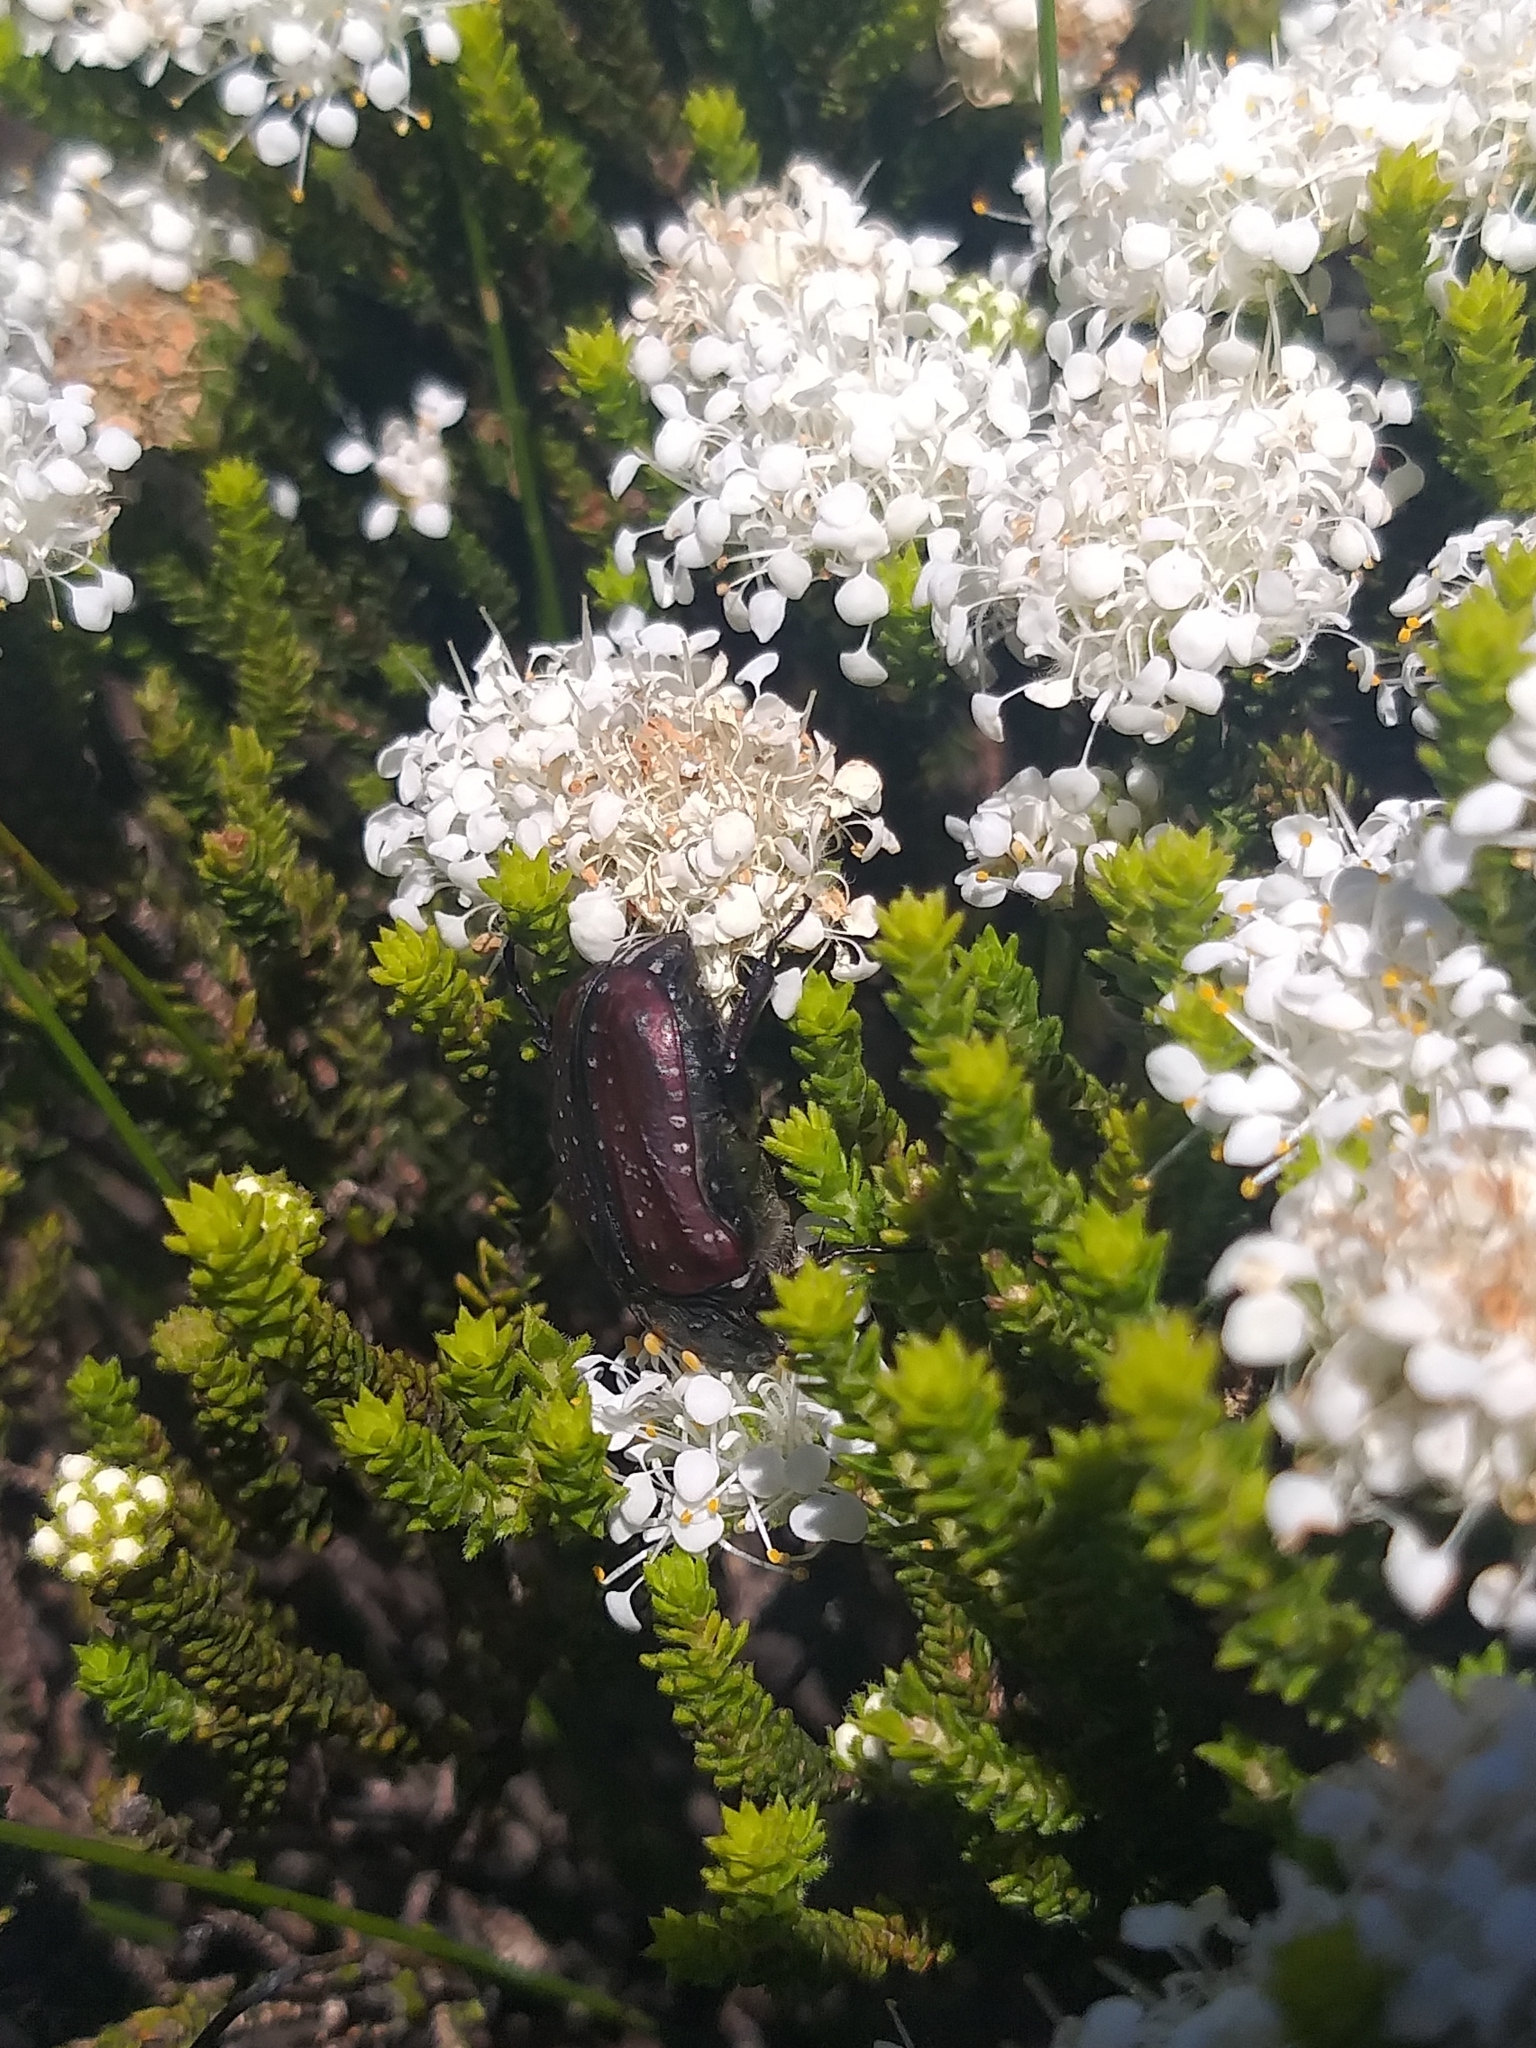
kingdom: Animalia
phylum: Arthropoda
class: Insecta
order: Coleoptera
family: Scarabaeidae
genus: Trichostetha
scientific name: Trichostetha capensis
